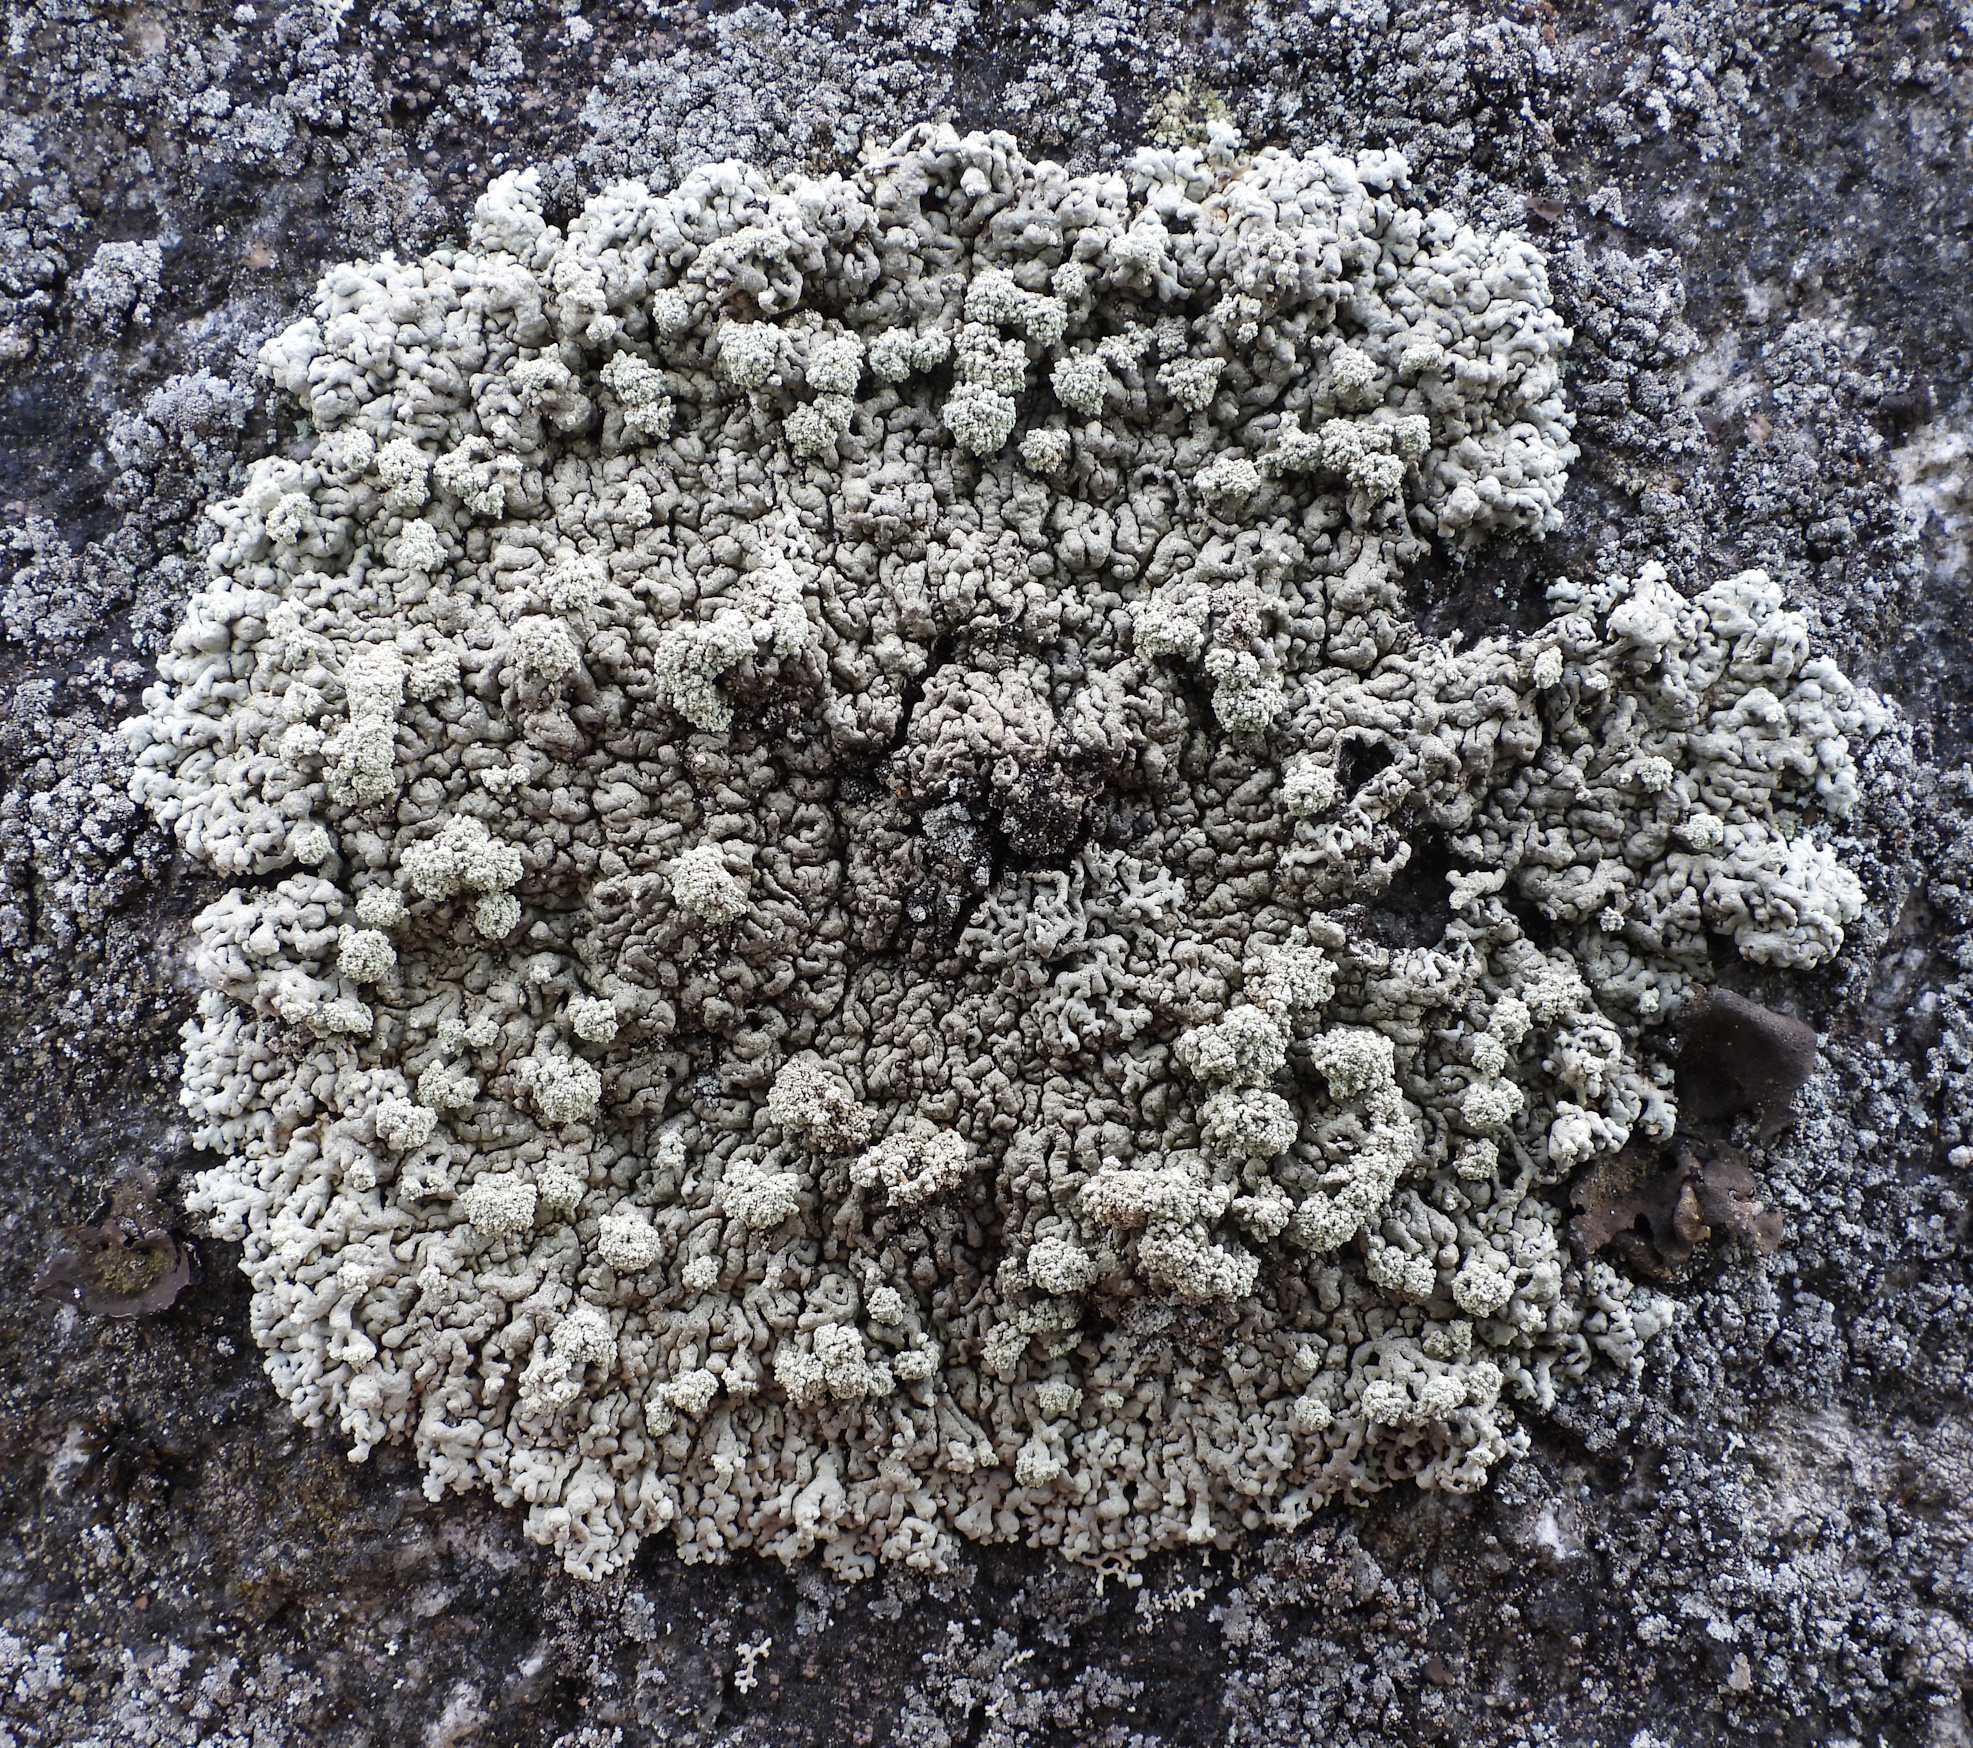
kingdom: Fungi
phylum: Ascomycota
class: Lecanoromycetes
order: Lecanorales
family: Parmeliaceae
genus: Arctoparmelia
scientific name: Arctoparmelia incurva
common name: Bent ring lichen
